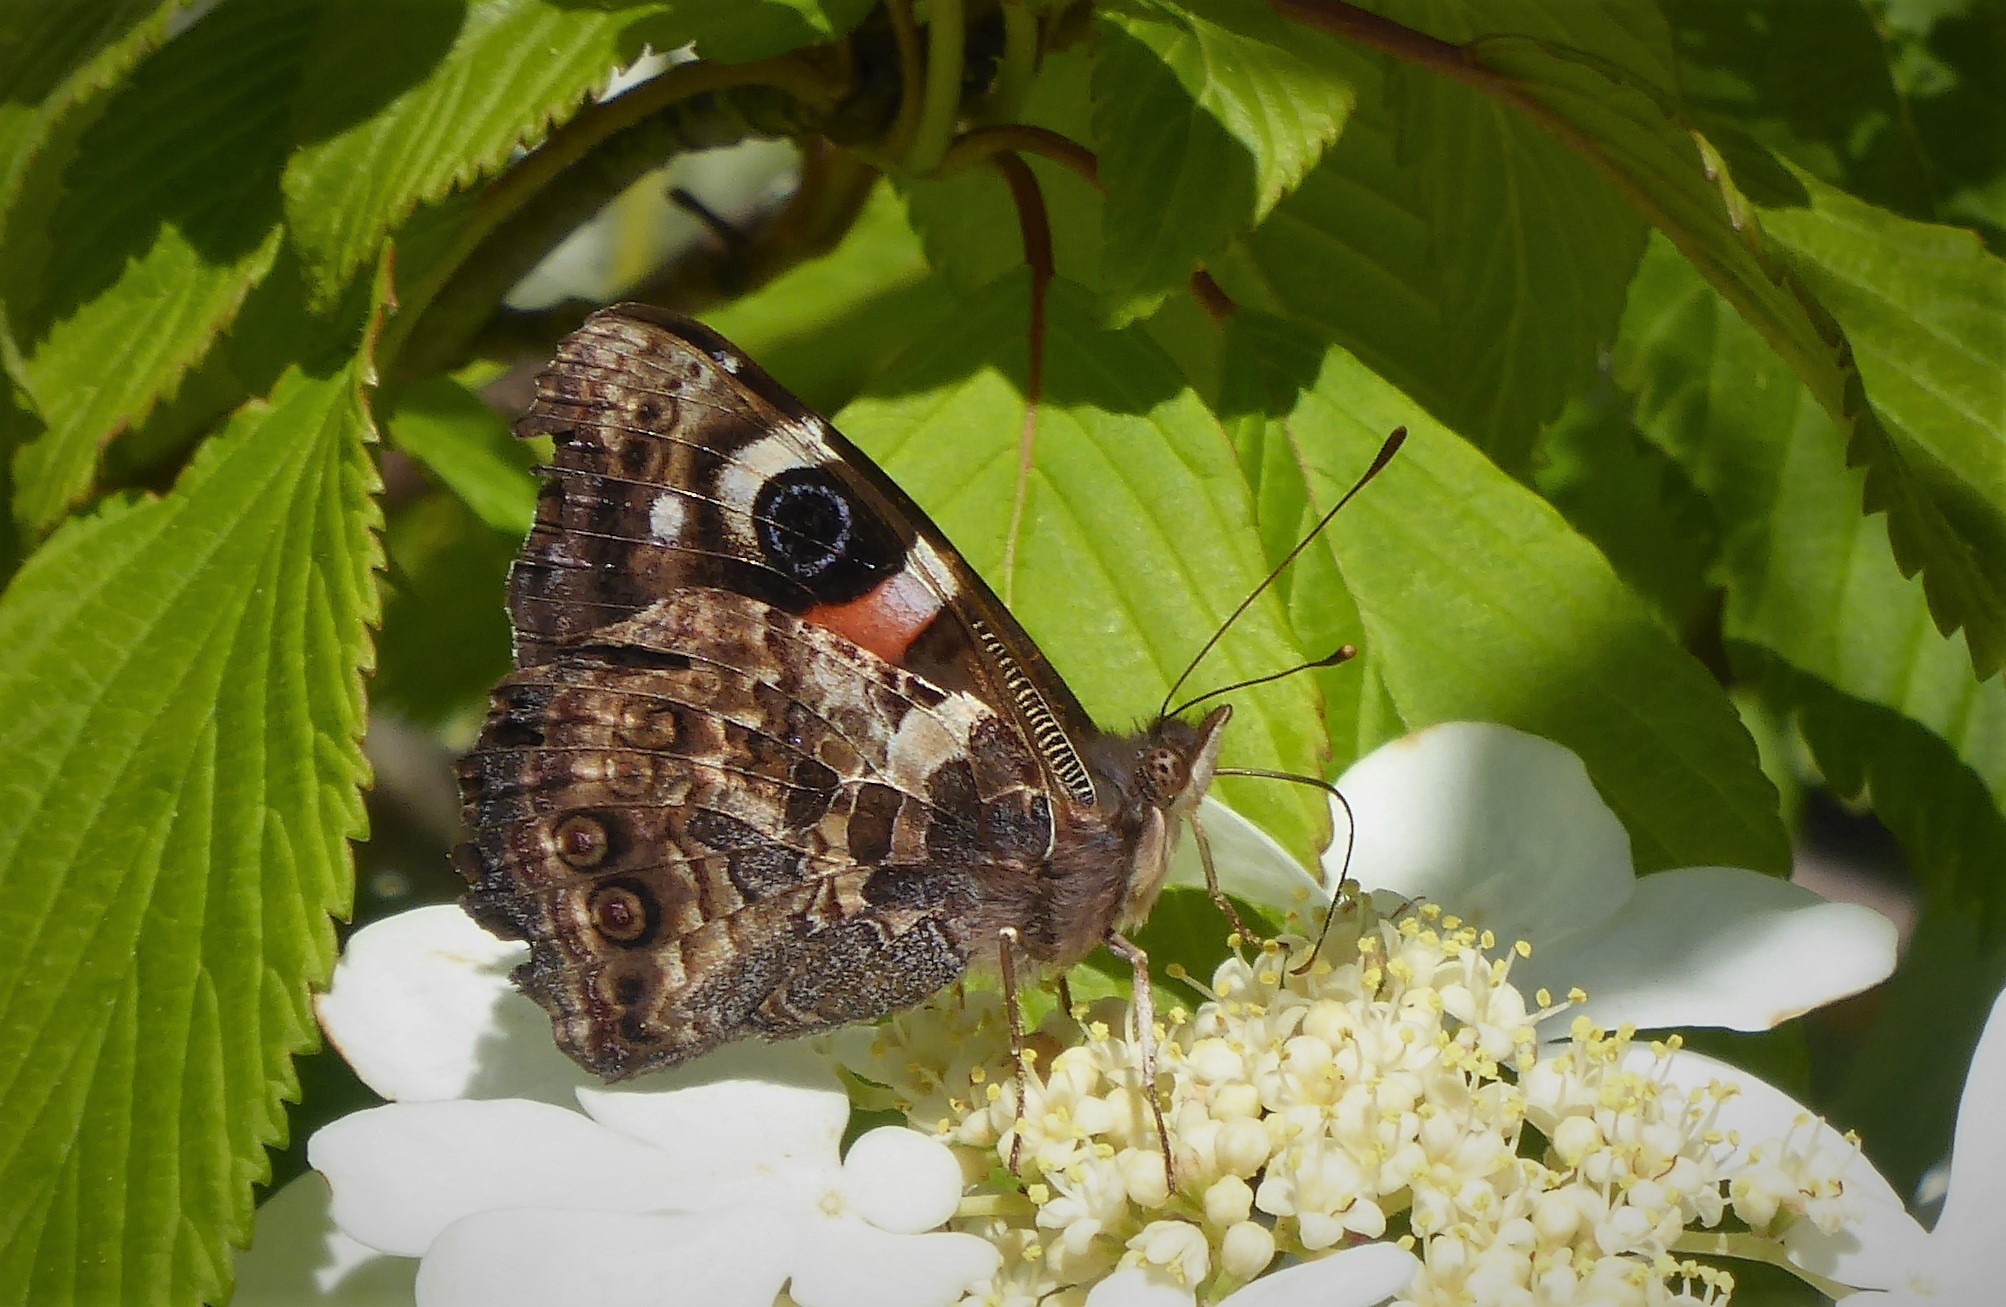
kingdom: Animalia
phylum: Arthropoda
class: Insecta
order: Lepidoptera
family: Nymphalidae
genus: Vanessa
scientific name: Vanessa gonerilla
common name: New zealand red admiral
